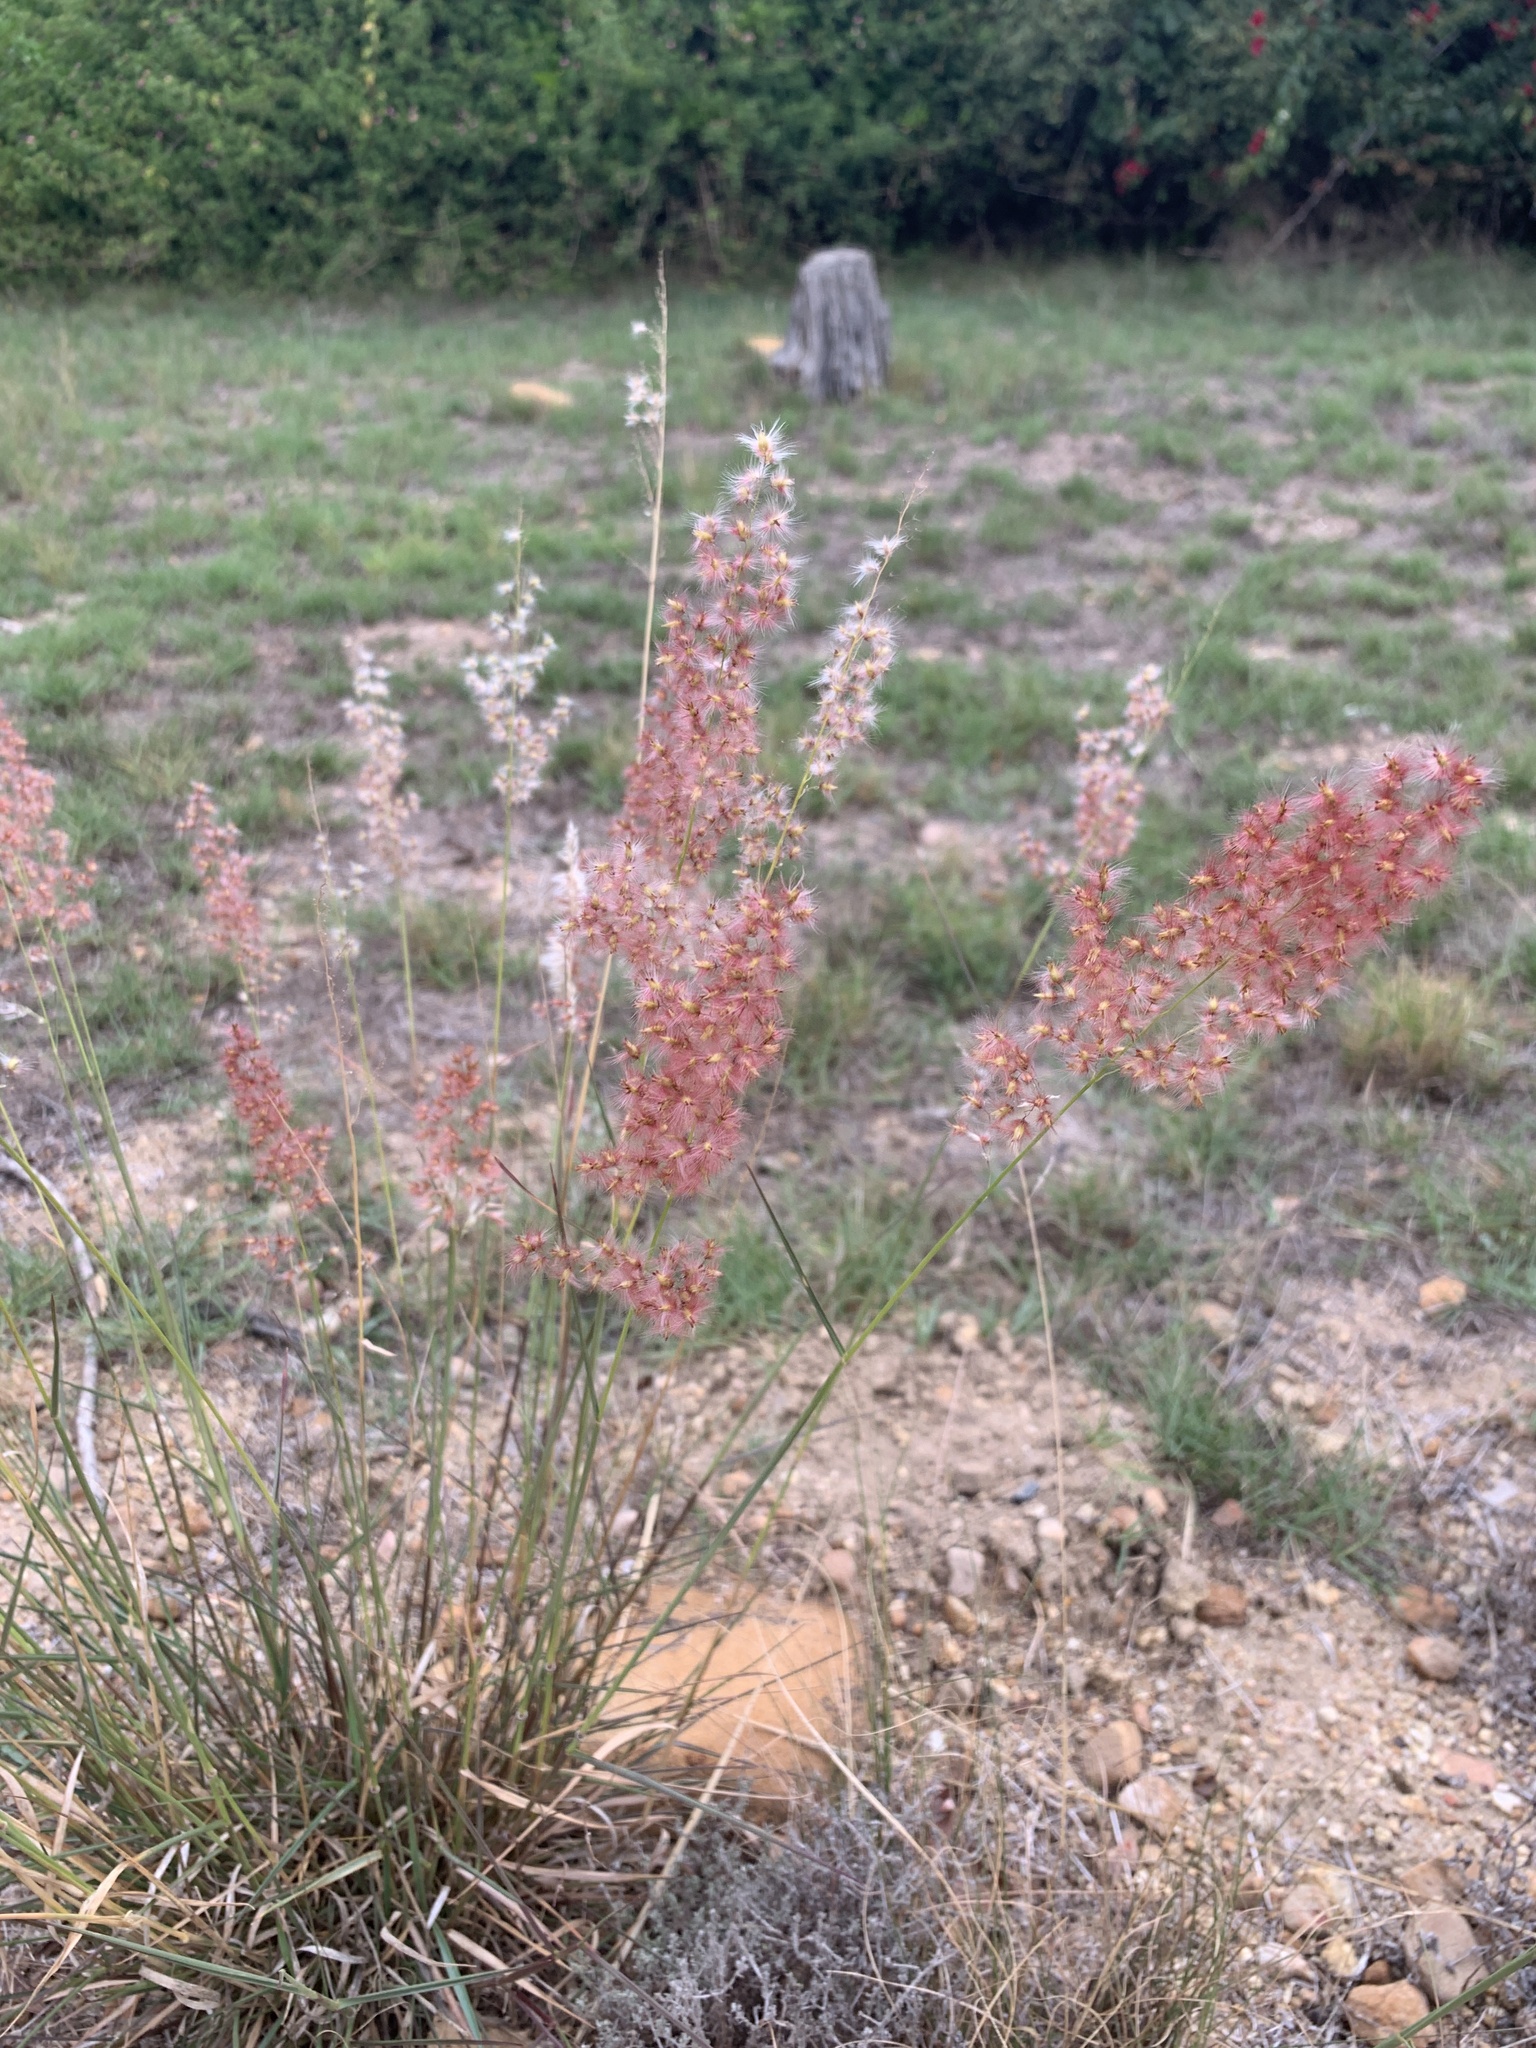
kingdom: Plantae
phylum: Tracheophyta
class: Liliopsida
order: Poales
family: Poaceae
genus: Melinis
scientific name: Melinis repens
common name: Rose natal grass
